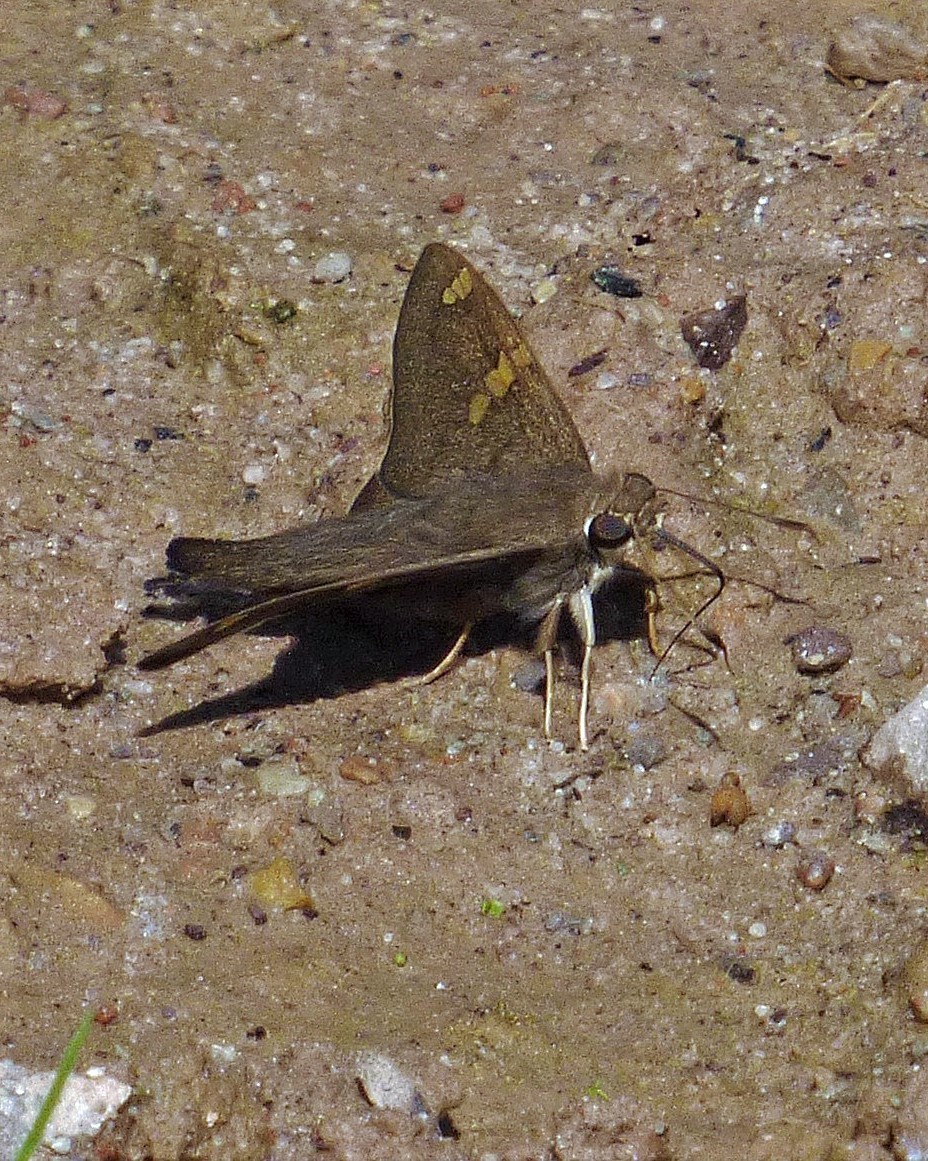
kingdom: Animalia
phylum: Arthropoda
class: Insecta
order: Lepidoptera
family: Hesperiidae
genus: Polythrix
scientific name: Polythrix octomaculata
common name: Eight-spotted longtail
